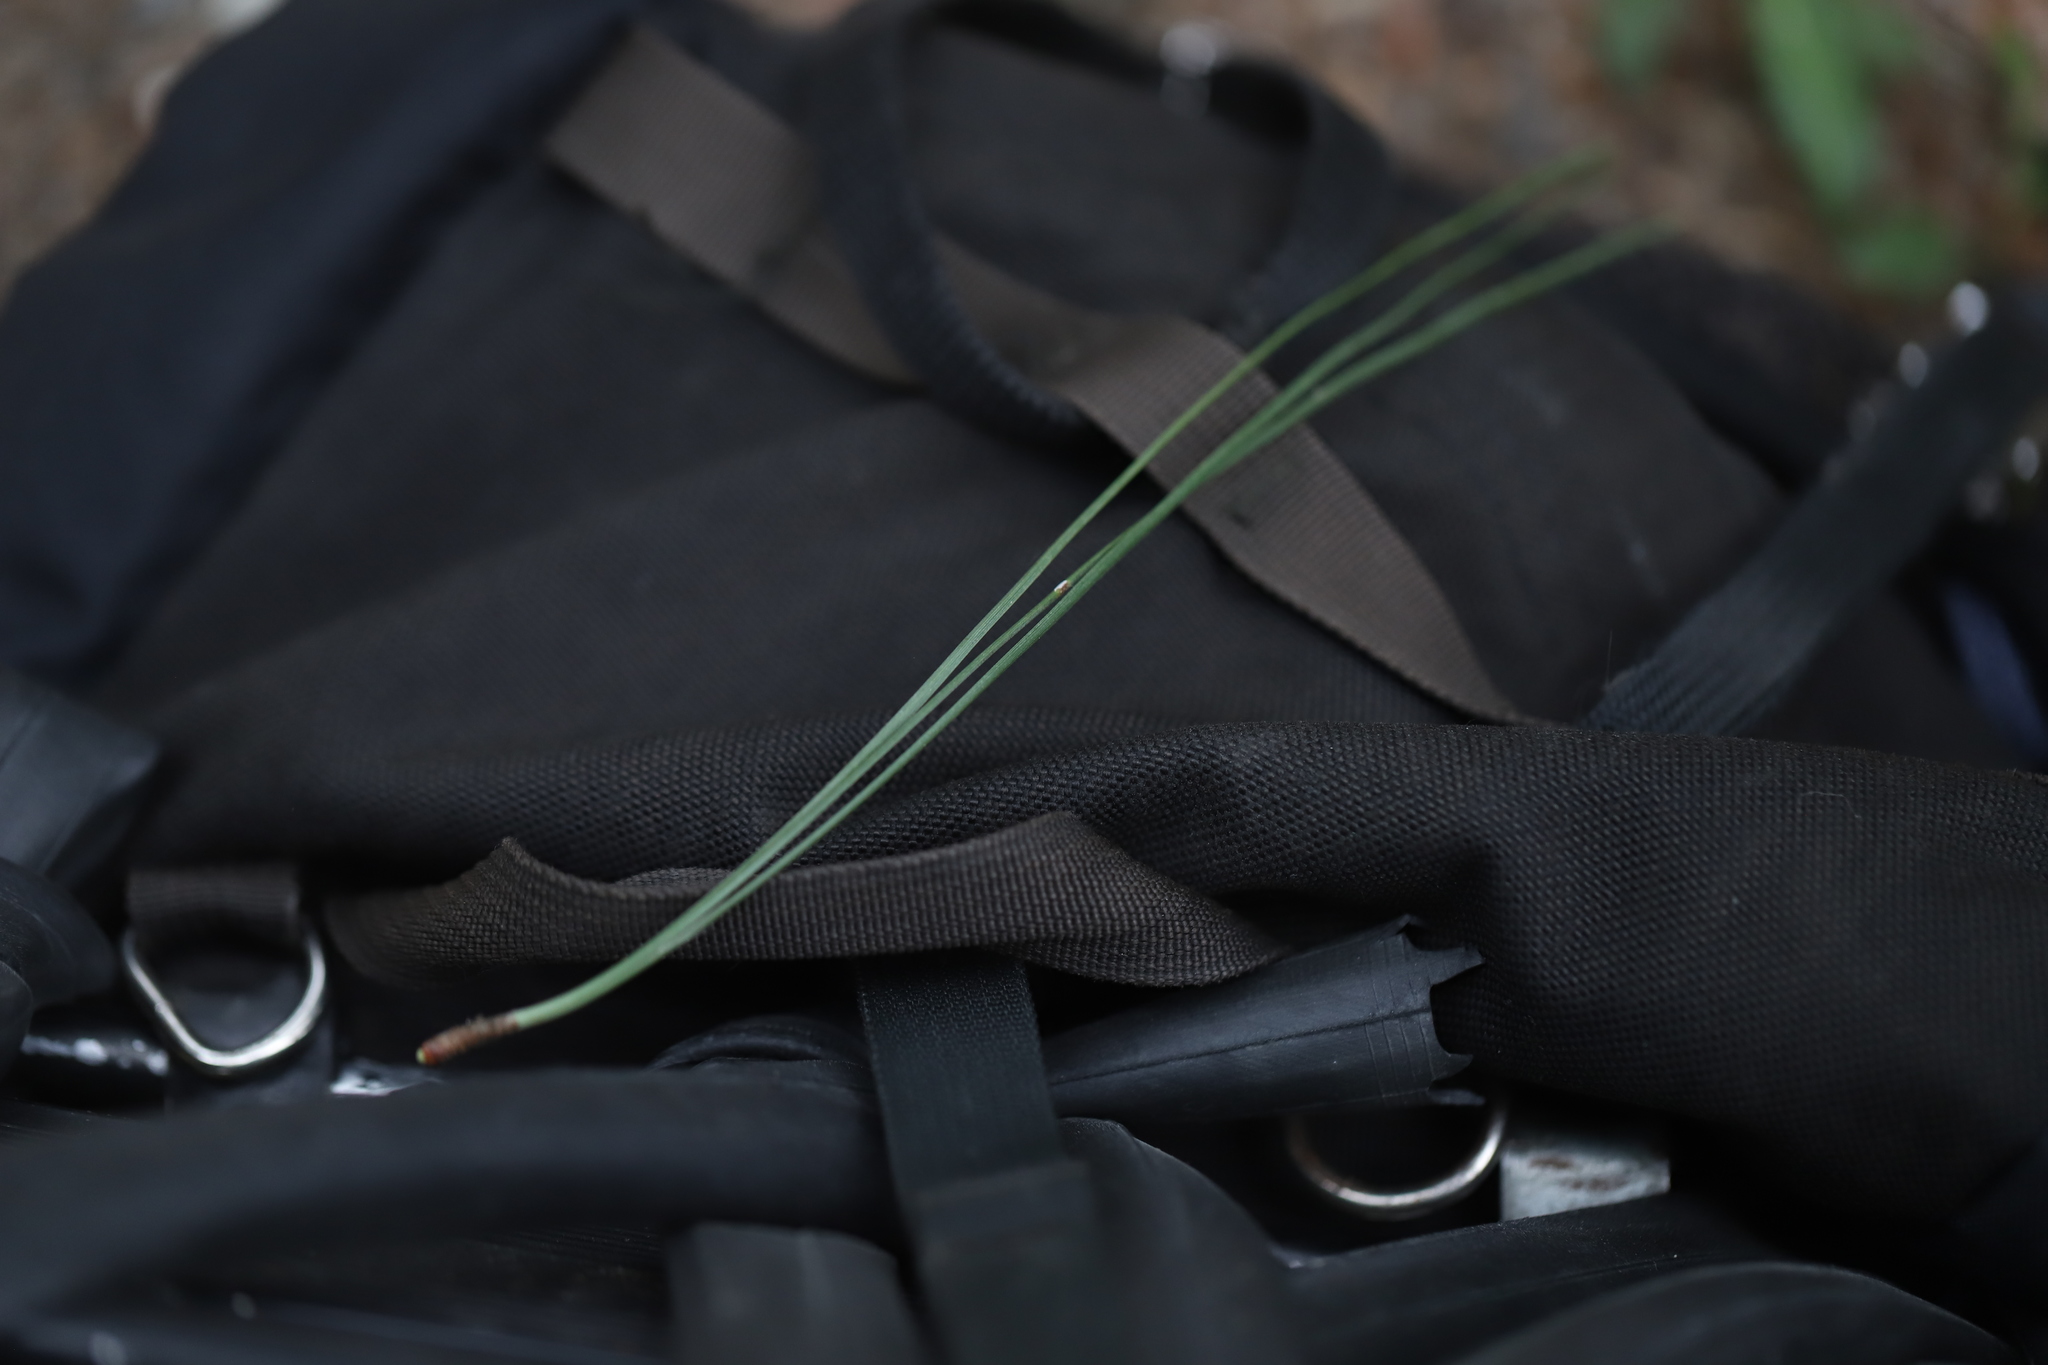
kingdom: Plantae
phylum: Tracheophyta
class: Pinopsida
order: Pinales
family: Pinaceae
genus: Pinus
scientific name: Pinus ponderosa
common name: Western yellow-pine
